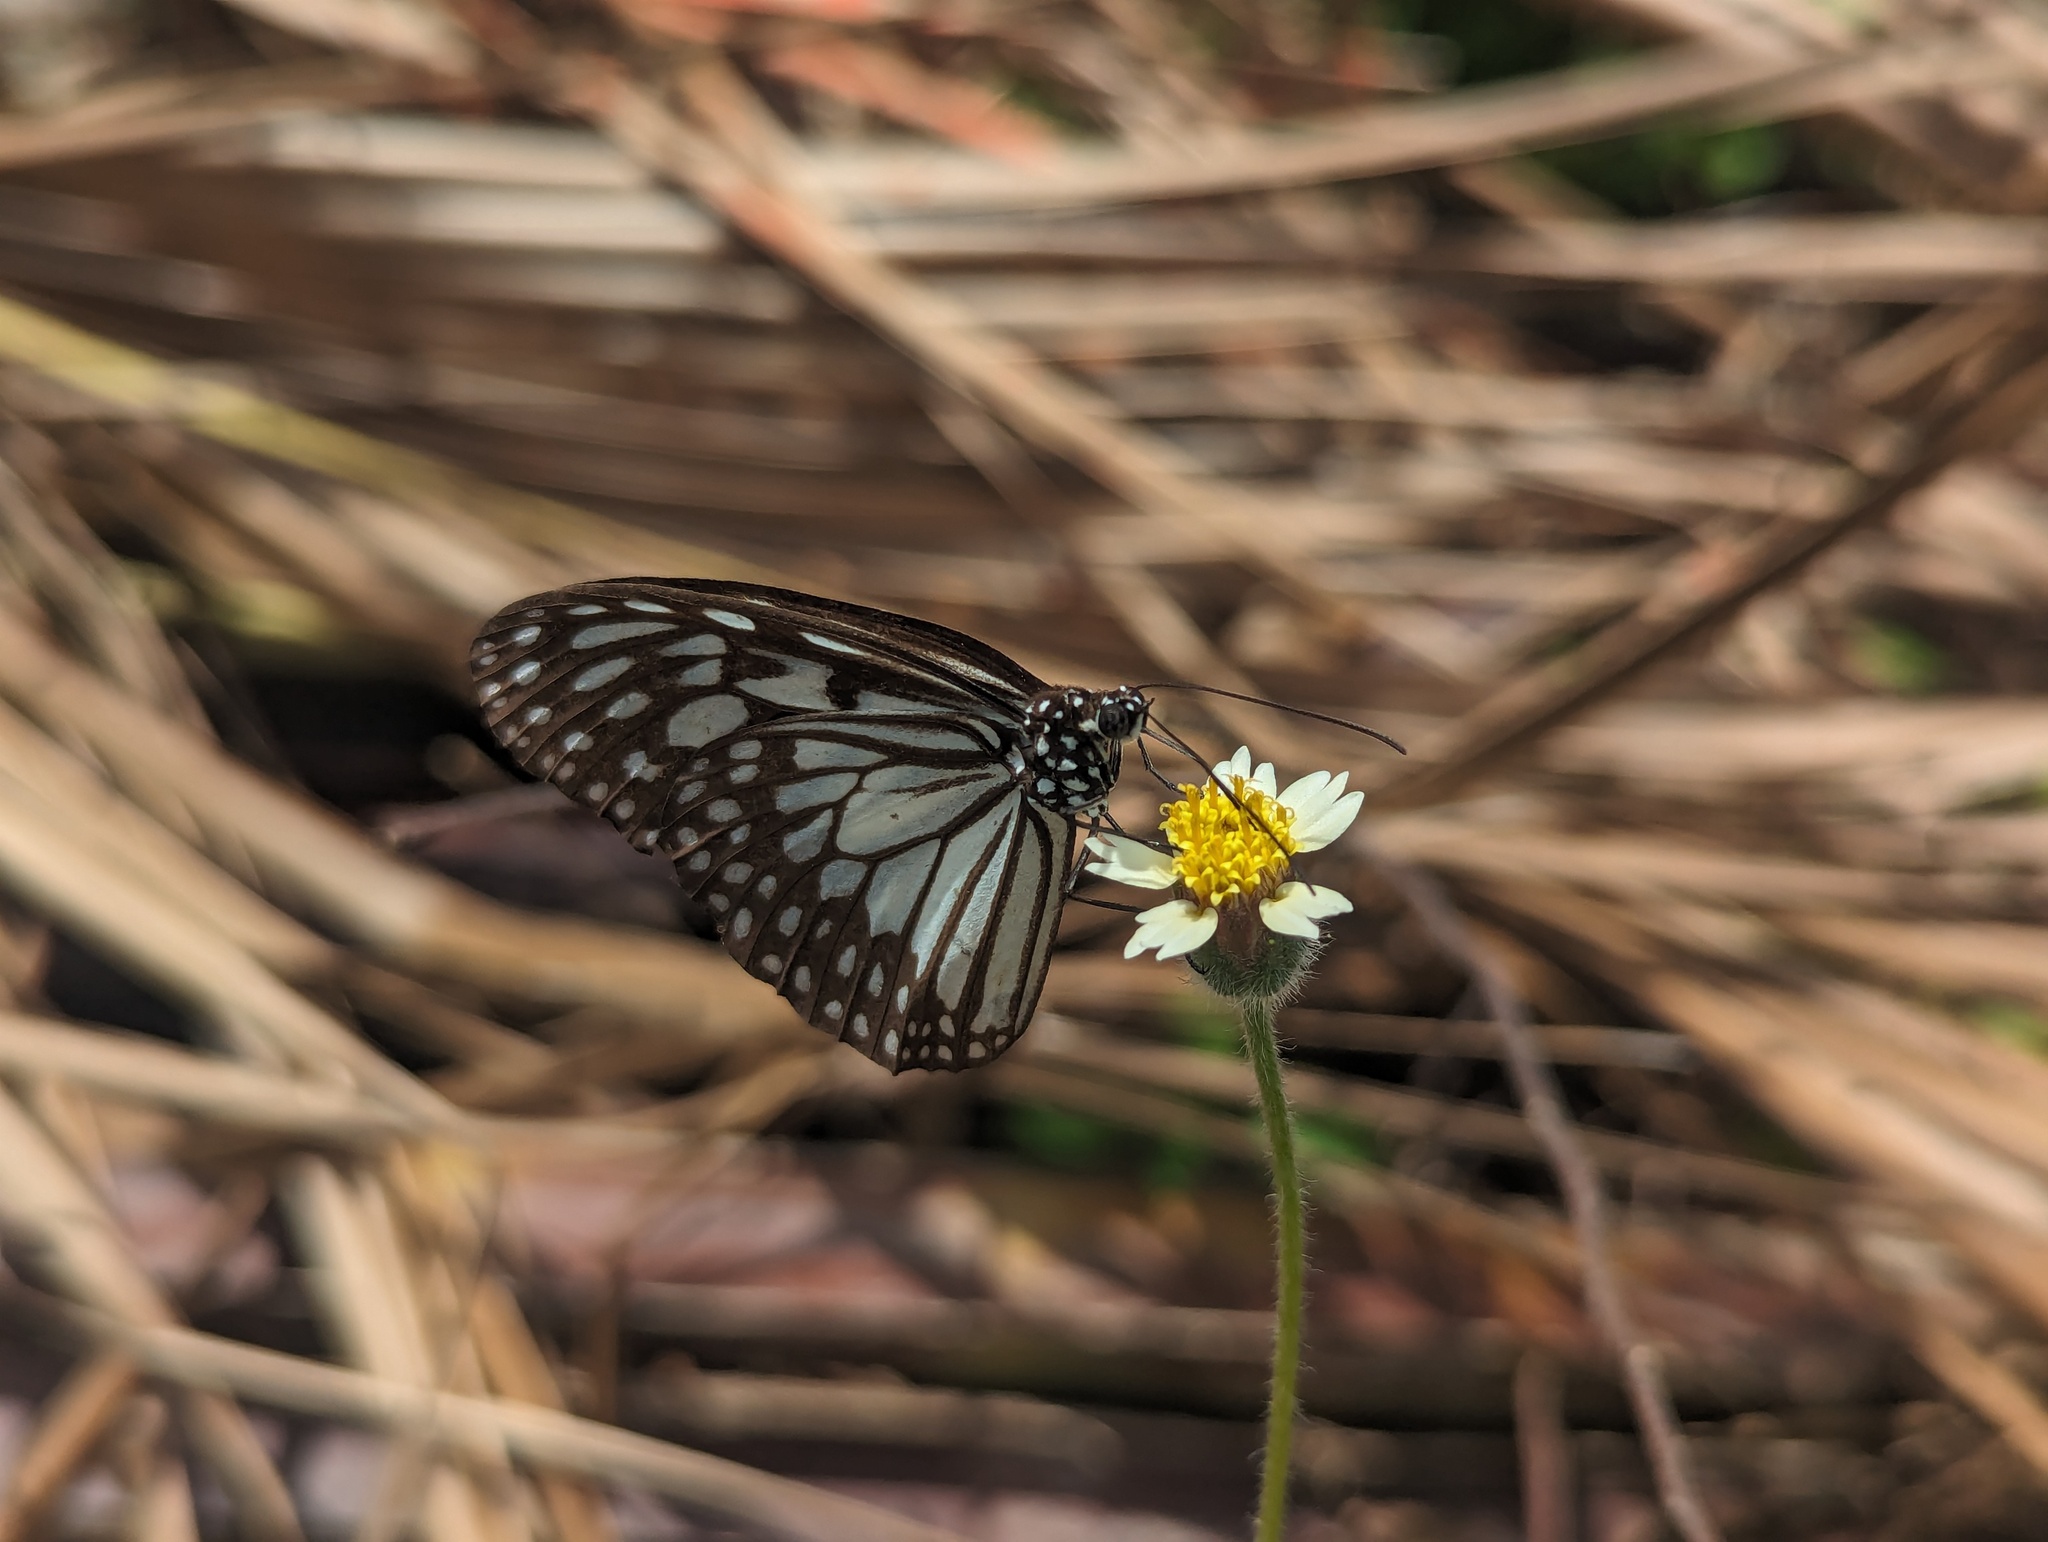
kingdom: Animalia
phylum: Arthropoda
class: Insecta
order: Lepidoptera
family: Nymphalidae
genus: Ideopsis
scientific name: Ideopsis juventa
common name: Grey glassy tiger
